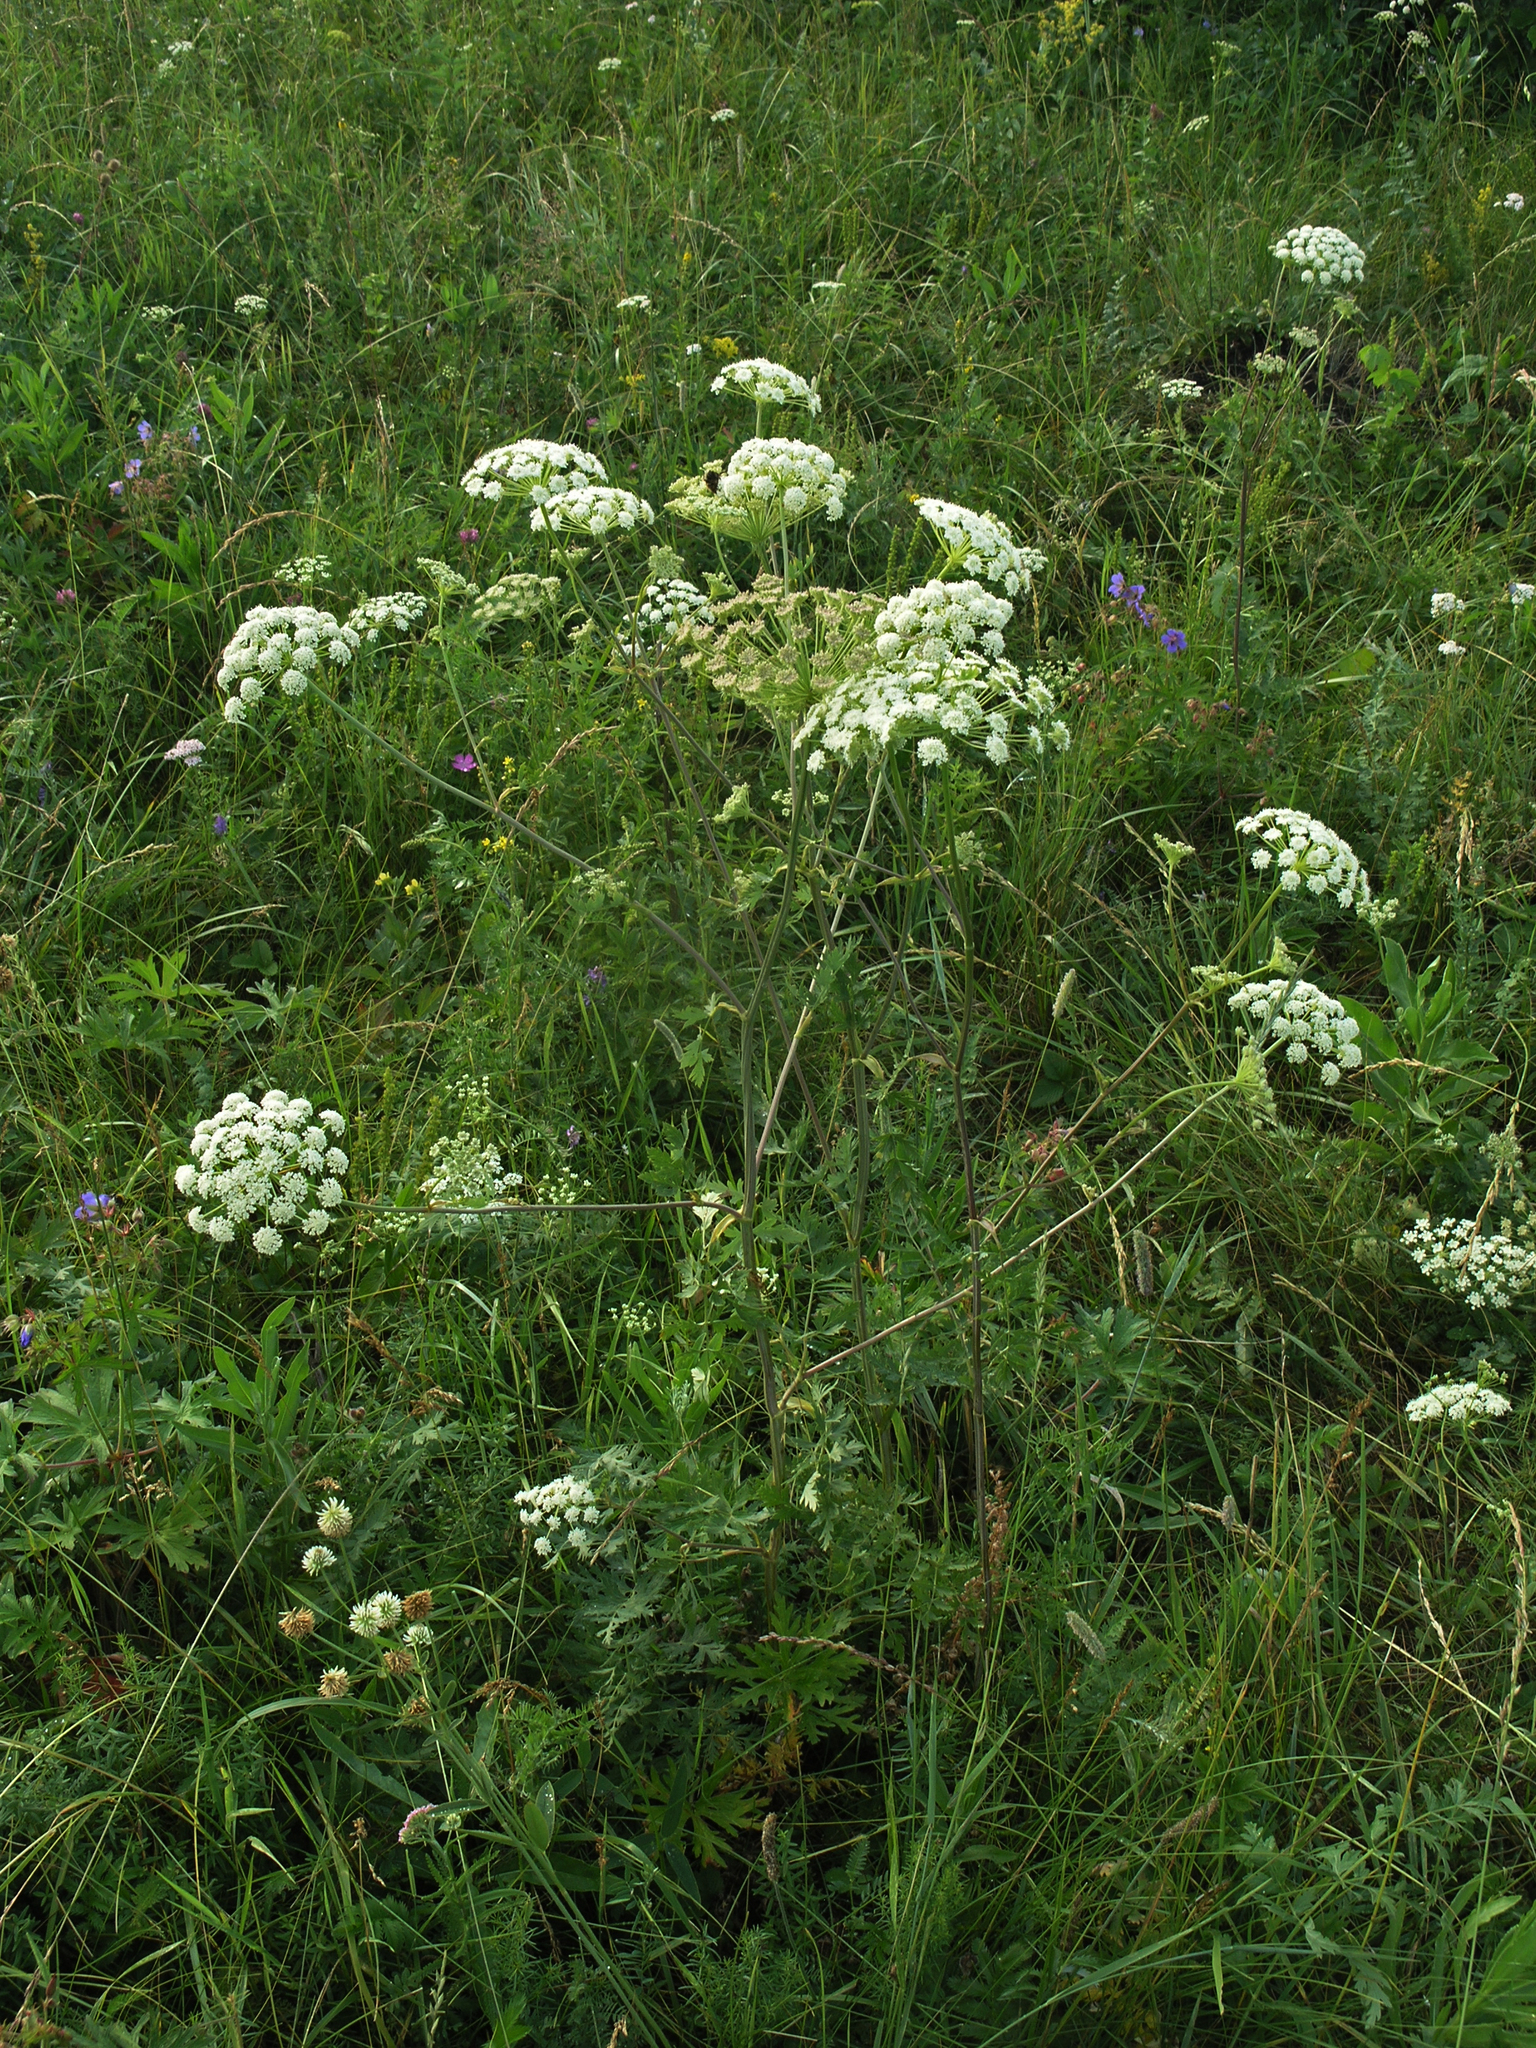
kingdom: Plantae
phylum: Tracheophyta
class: Magnoliopsida
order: Apiales
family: Apiaceae
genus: Seseli
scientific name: Seseli libanotis
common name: Mooncarrot
